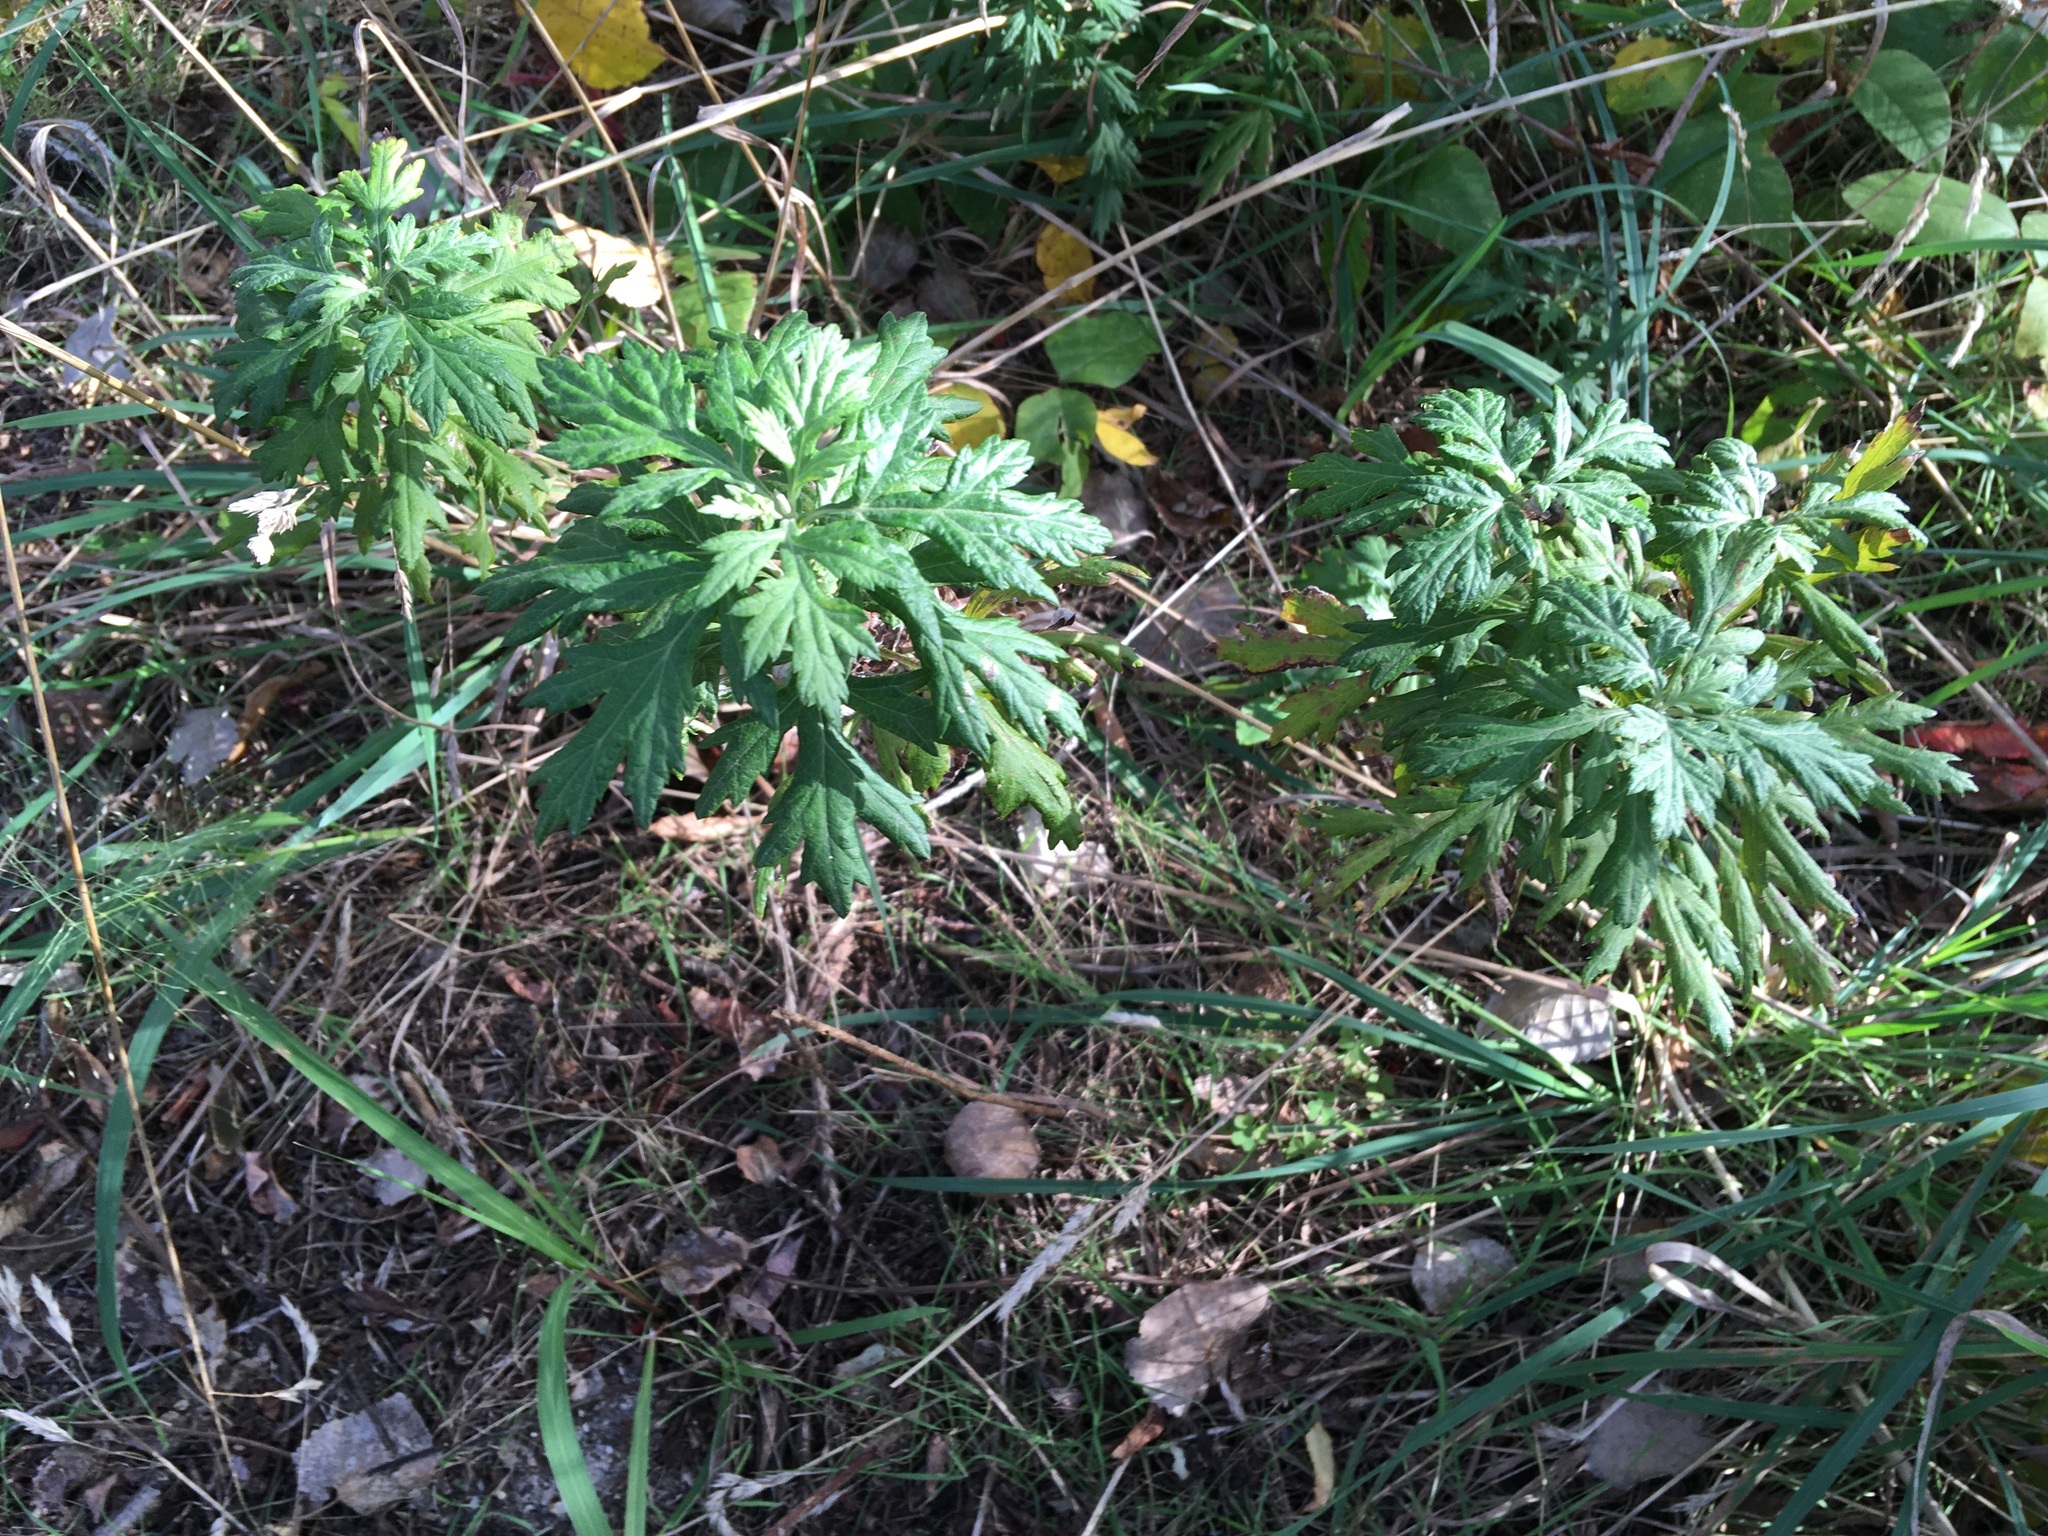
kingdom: Plantae
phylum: Tracheophyta
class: Magnoliopsida
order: Asterales
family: Asteraceae
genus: Artemisia
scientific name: Artemisia vulgaris
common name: Mugwort
